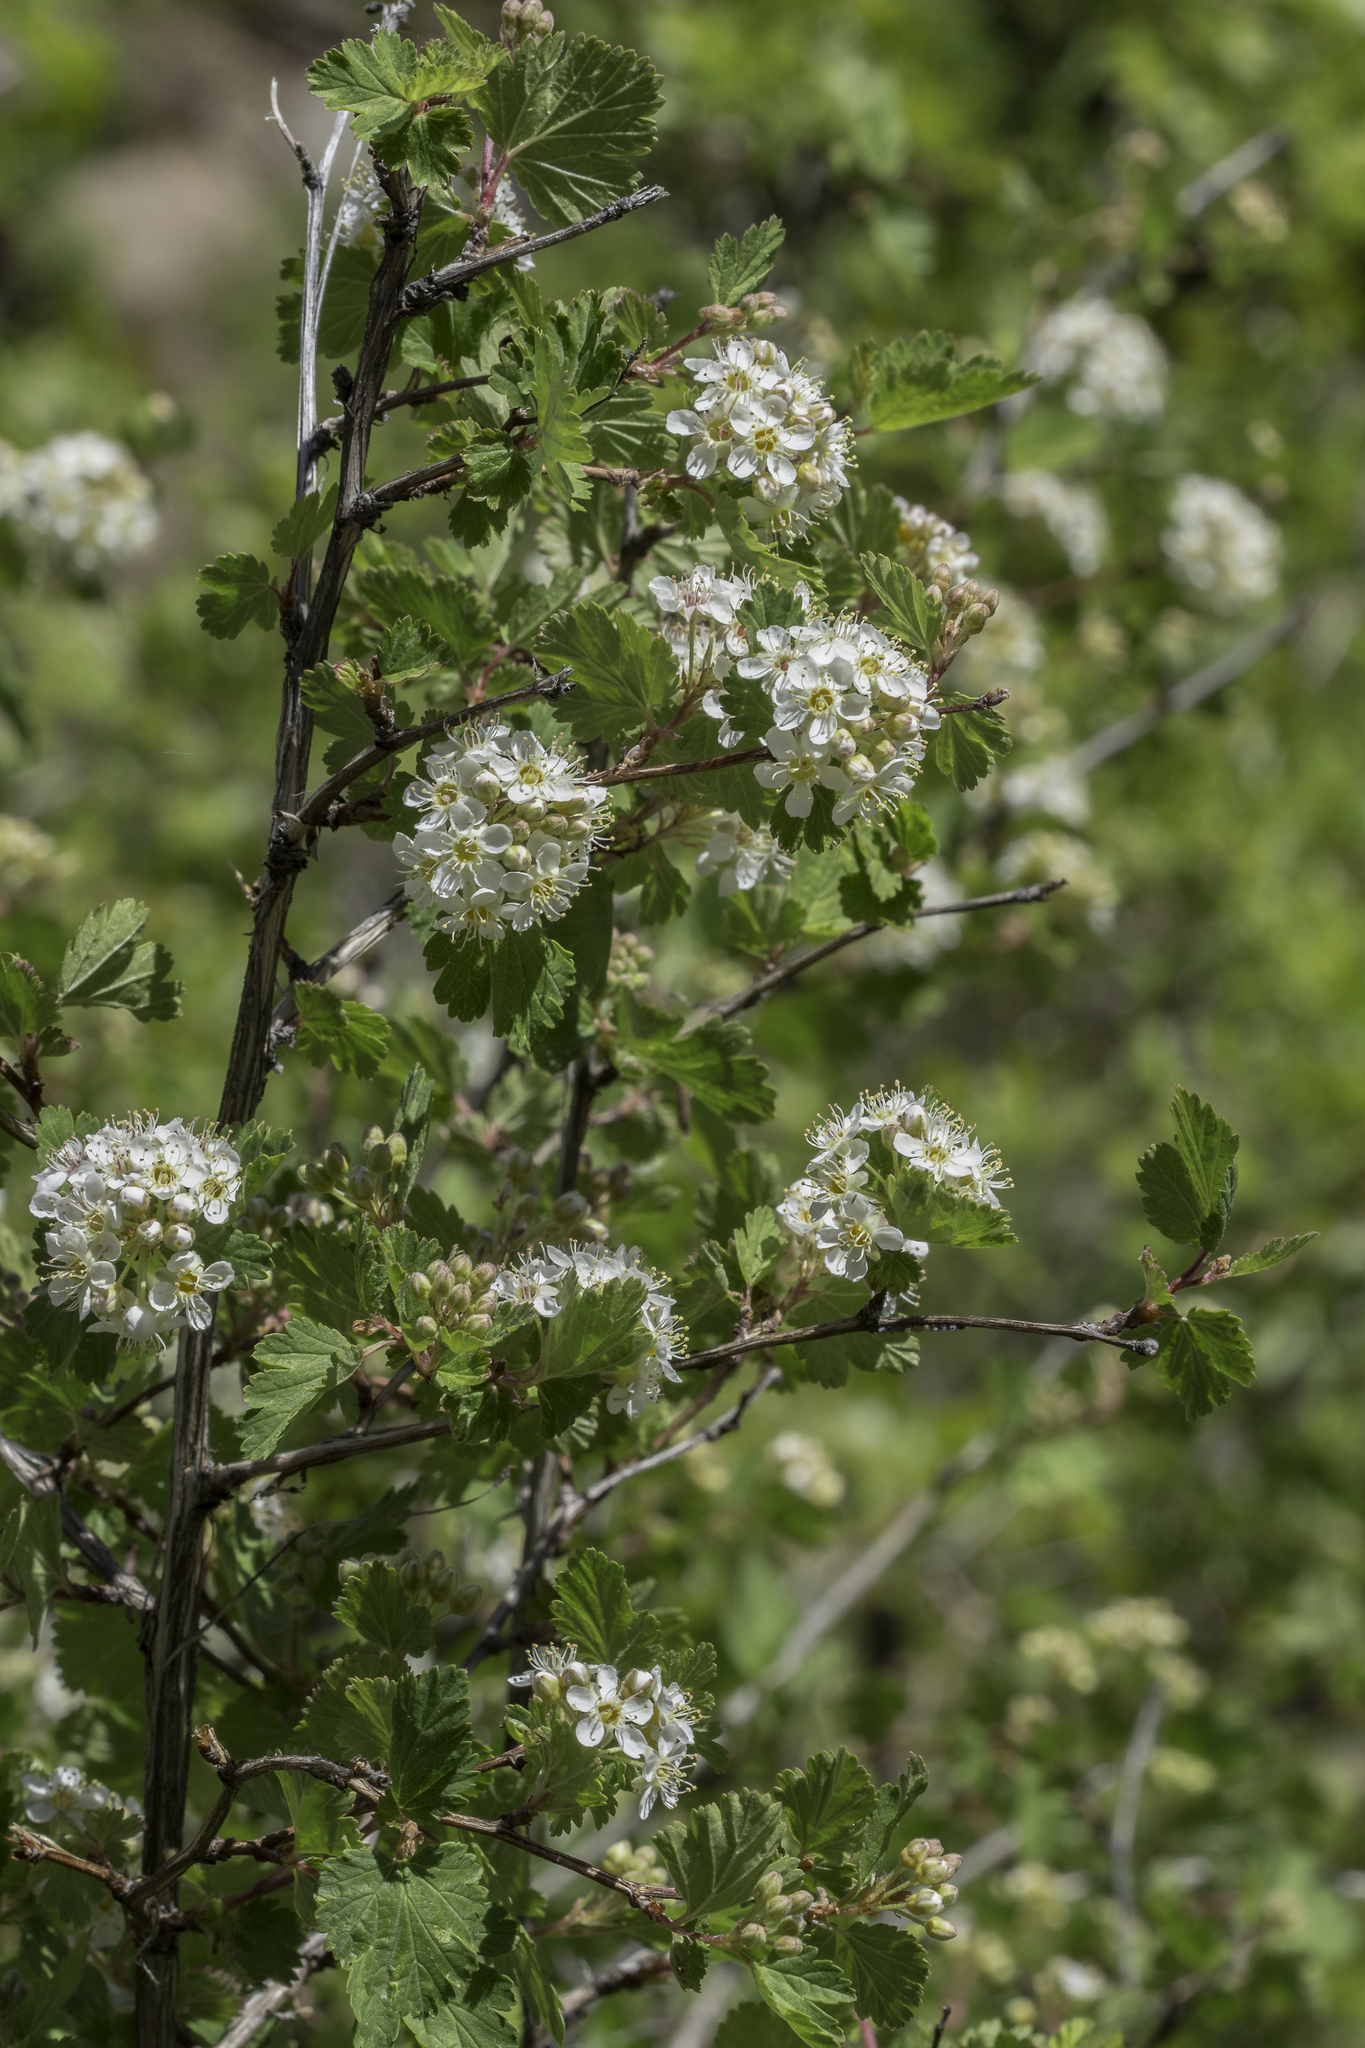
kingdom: Plantae
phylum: Tracheophyta
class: Magnoliopsida
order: Rosales
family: Rosaceae
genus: Physocarpus
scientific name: Physocarpus monogynus
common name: Mountain ninebark
